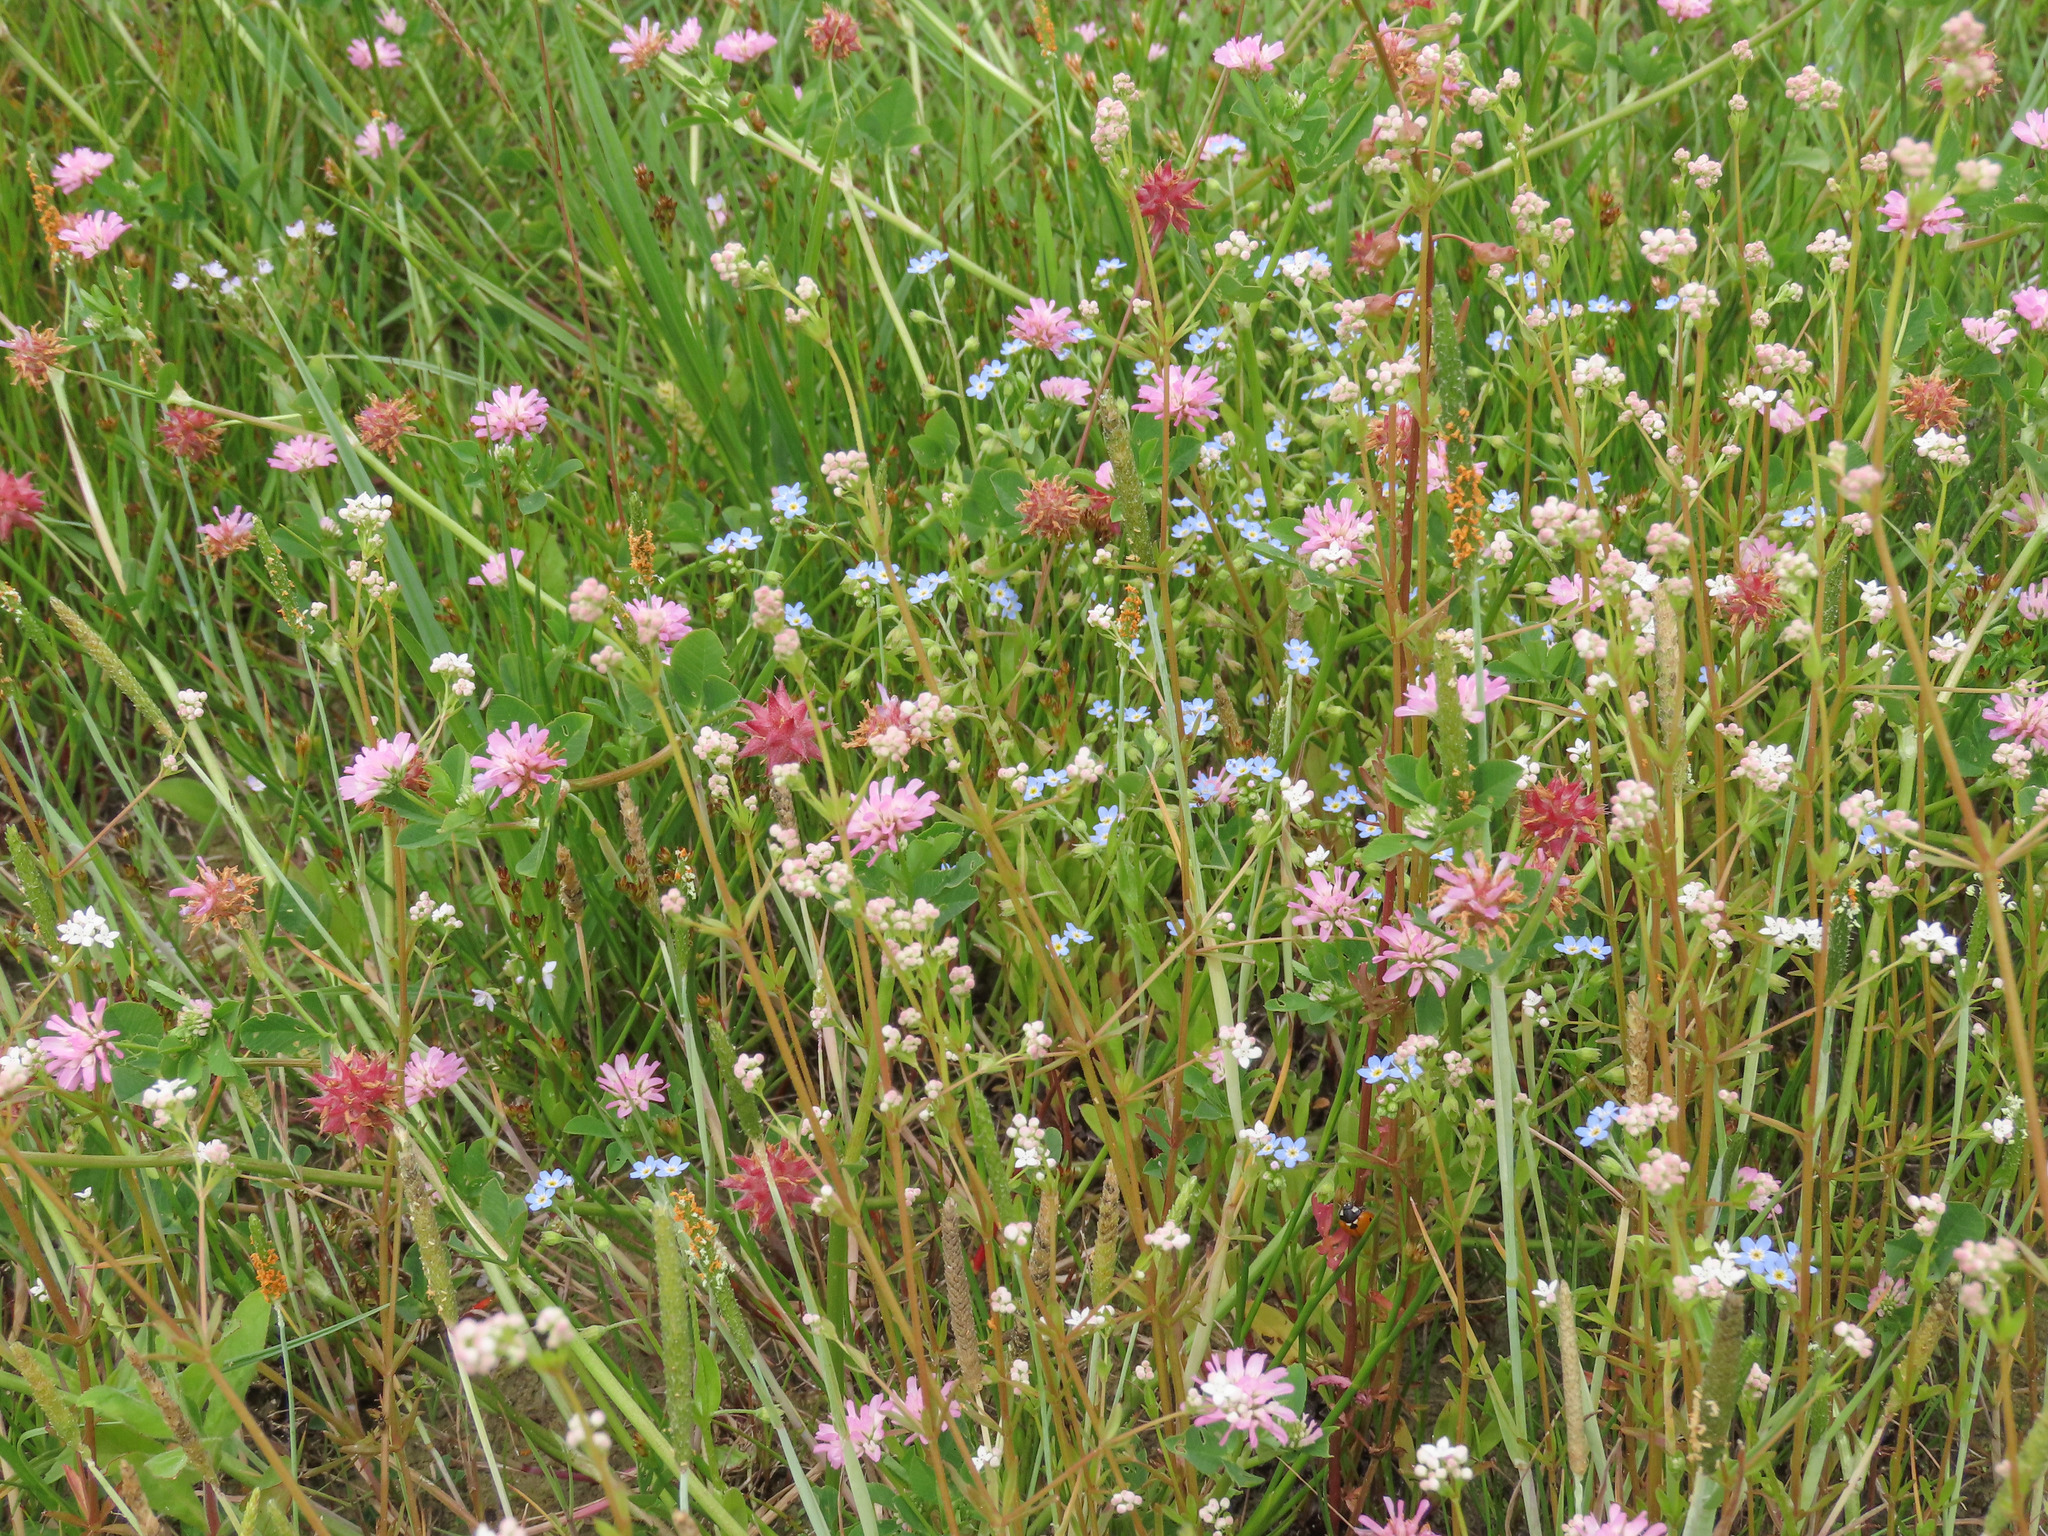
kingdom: Plantae
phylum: Tracheophyta
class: Magnoliopsida
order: Fabales
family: Fabaceae
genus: Trifolium
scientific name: Trifolium resupinatum
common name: Reversed clover
